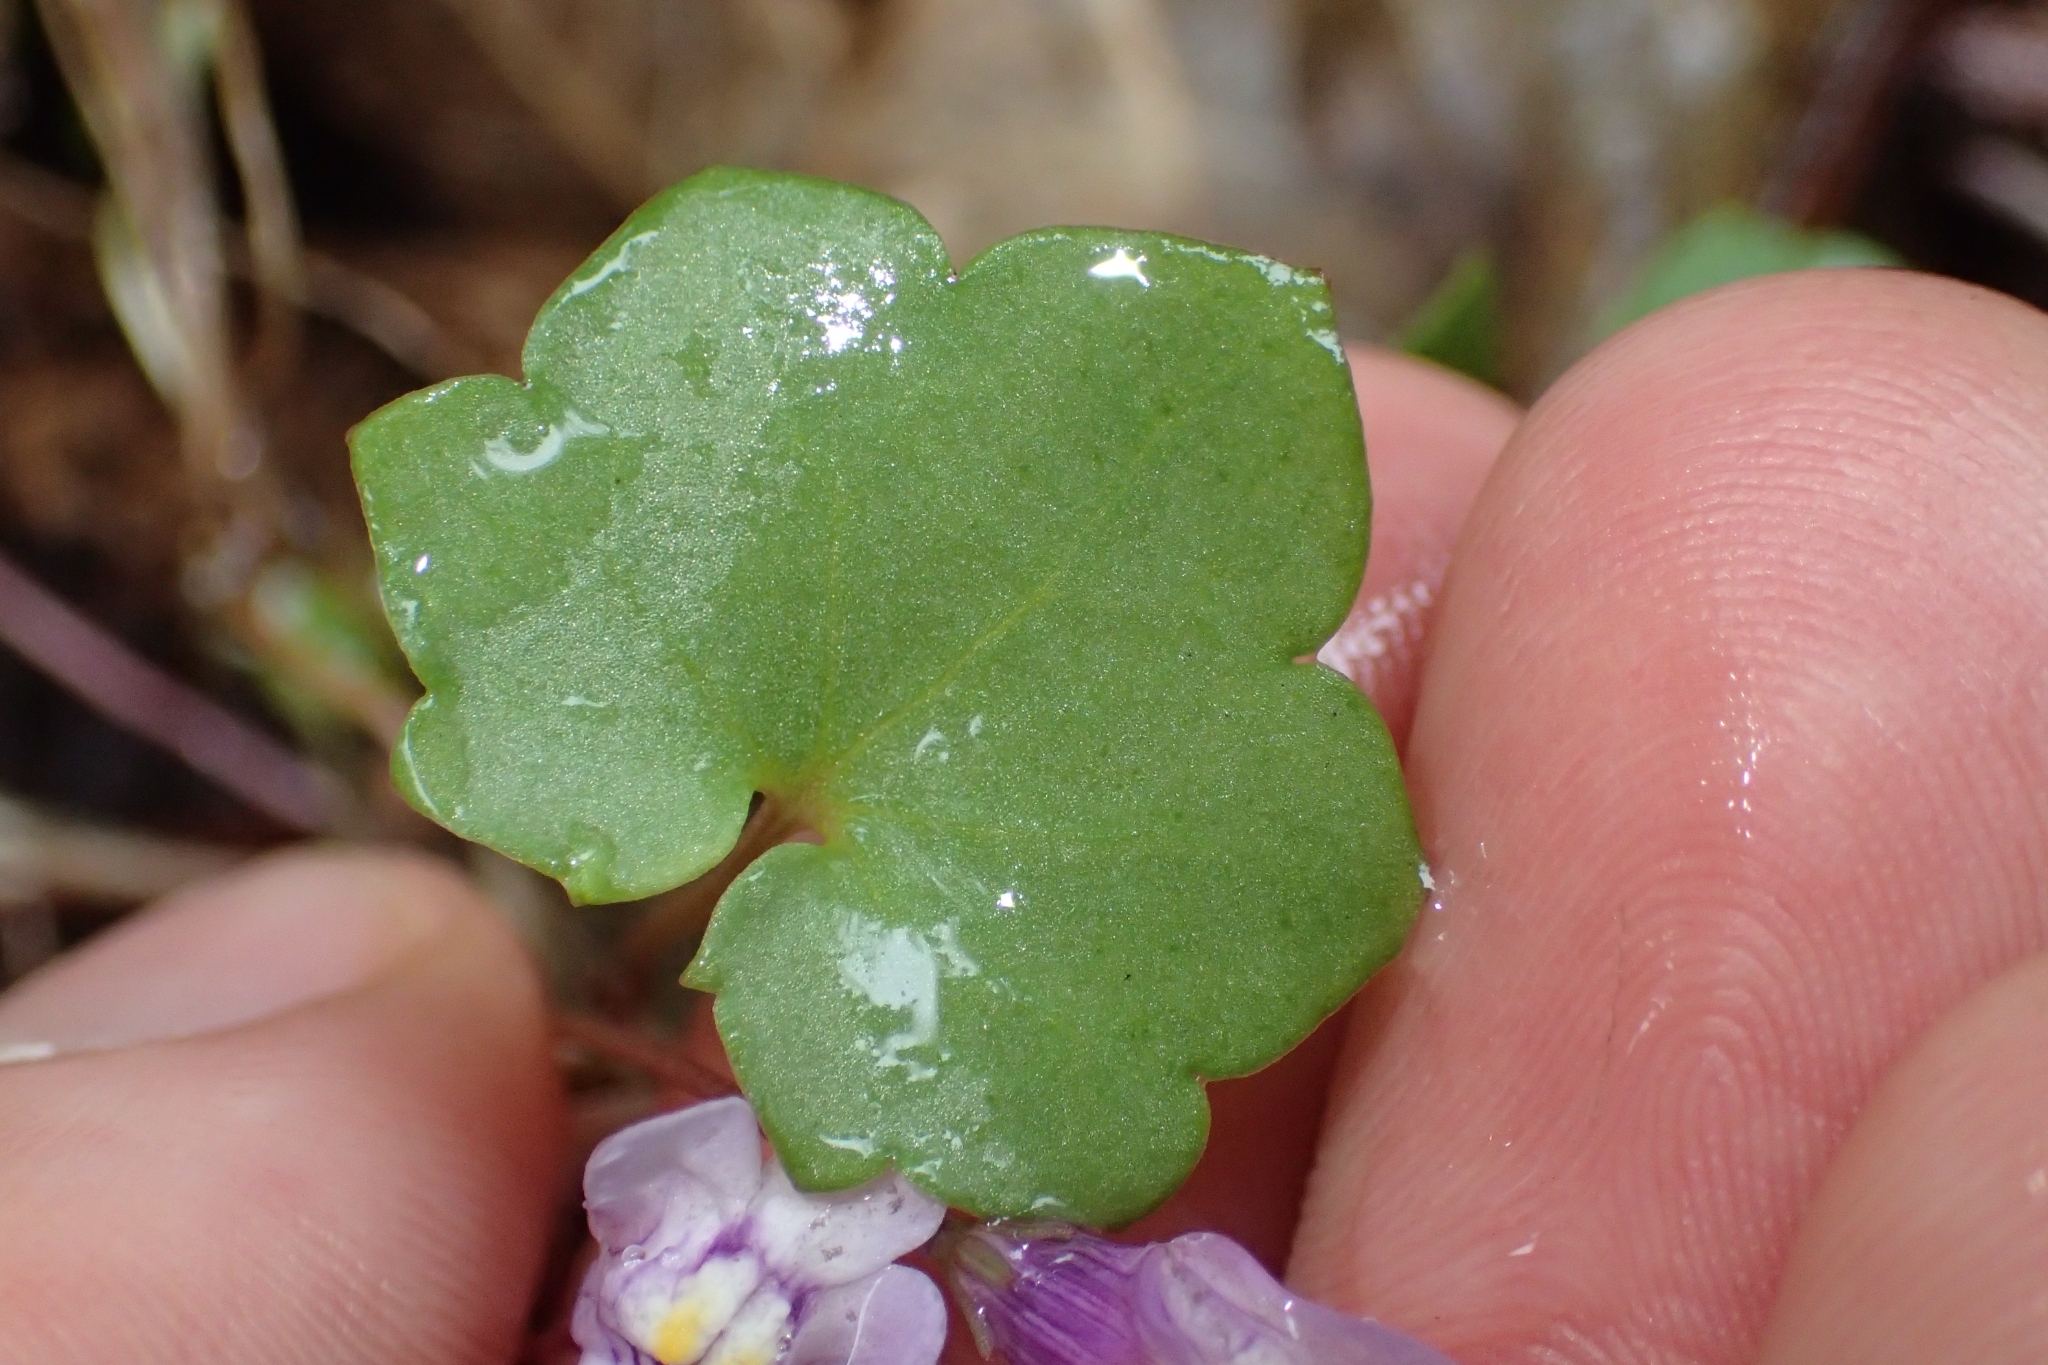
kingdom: Plantae
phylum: Tracheophyta
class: Magnoliopsida
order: Lamiales
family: Plantaginaceae
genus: Cymbalaria
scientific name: Cymbalaria muralis
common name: Ivy-leaved toadflax
